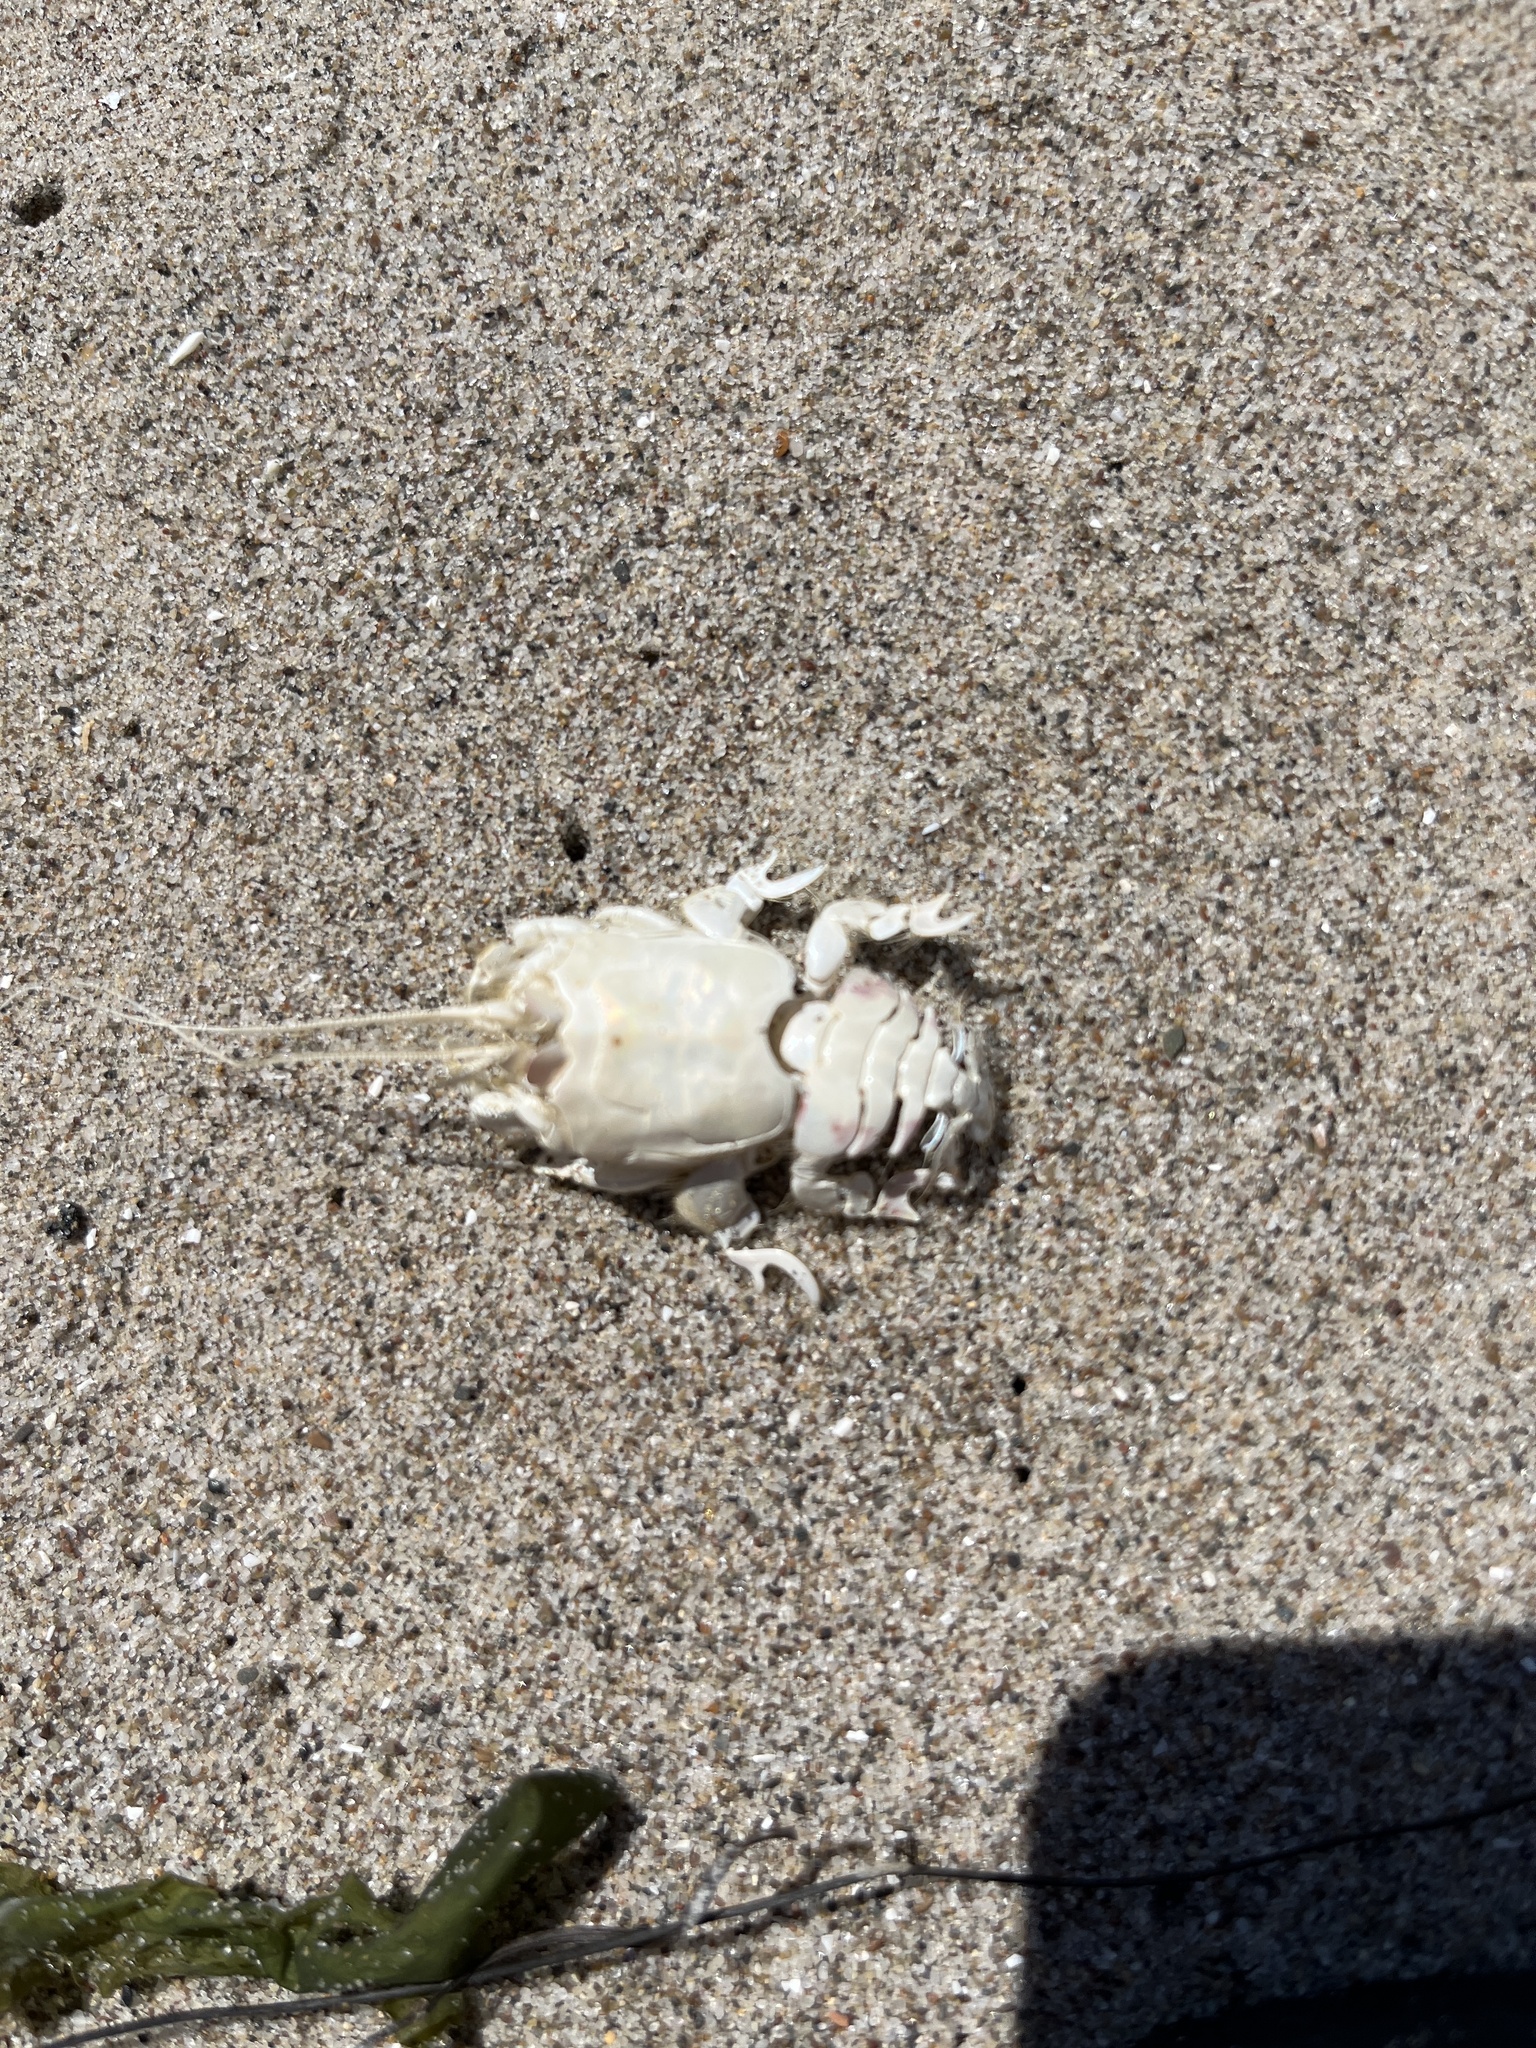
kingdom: Animalia
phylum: Arthropoda
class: Malacostraca
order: Decapoda
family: Blepharipodidae
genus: Blepharipoda
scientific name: Blepharipoda occidentalis
